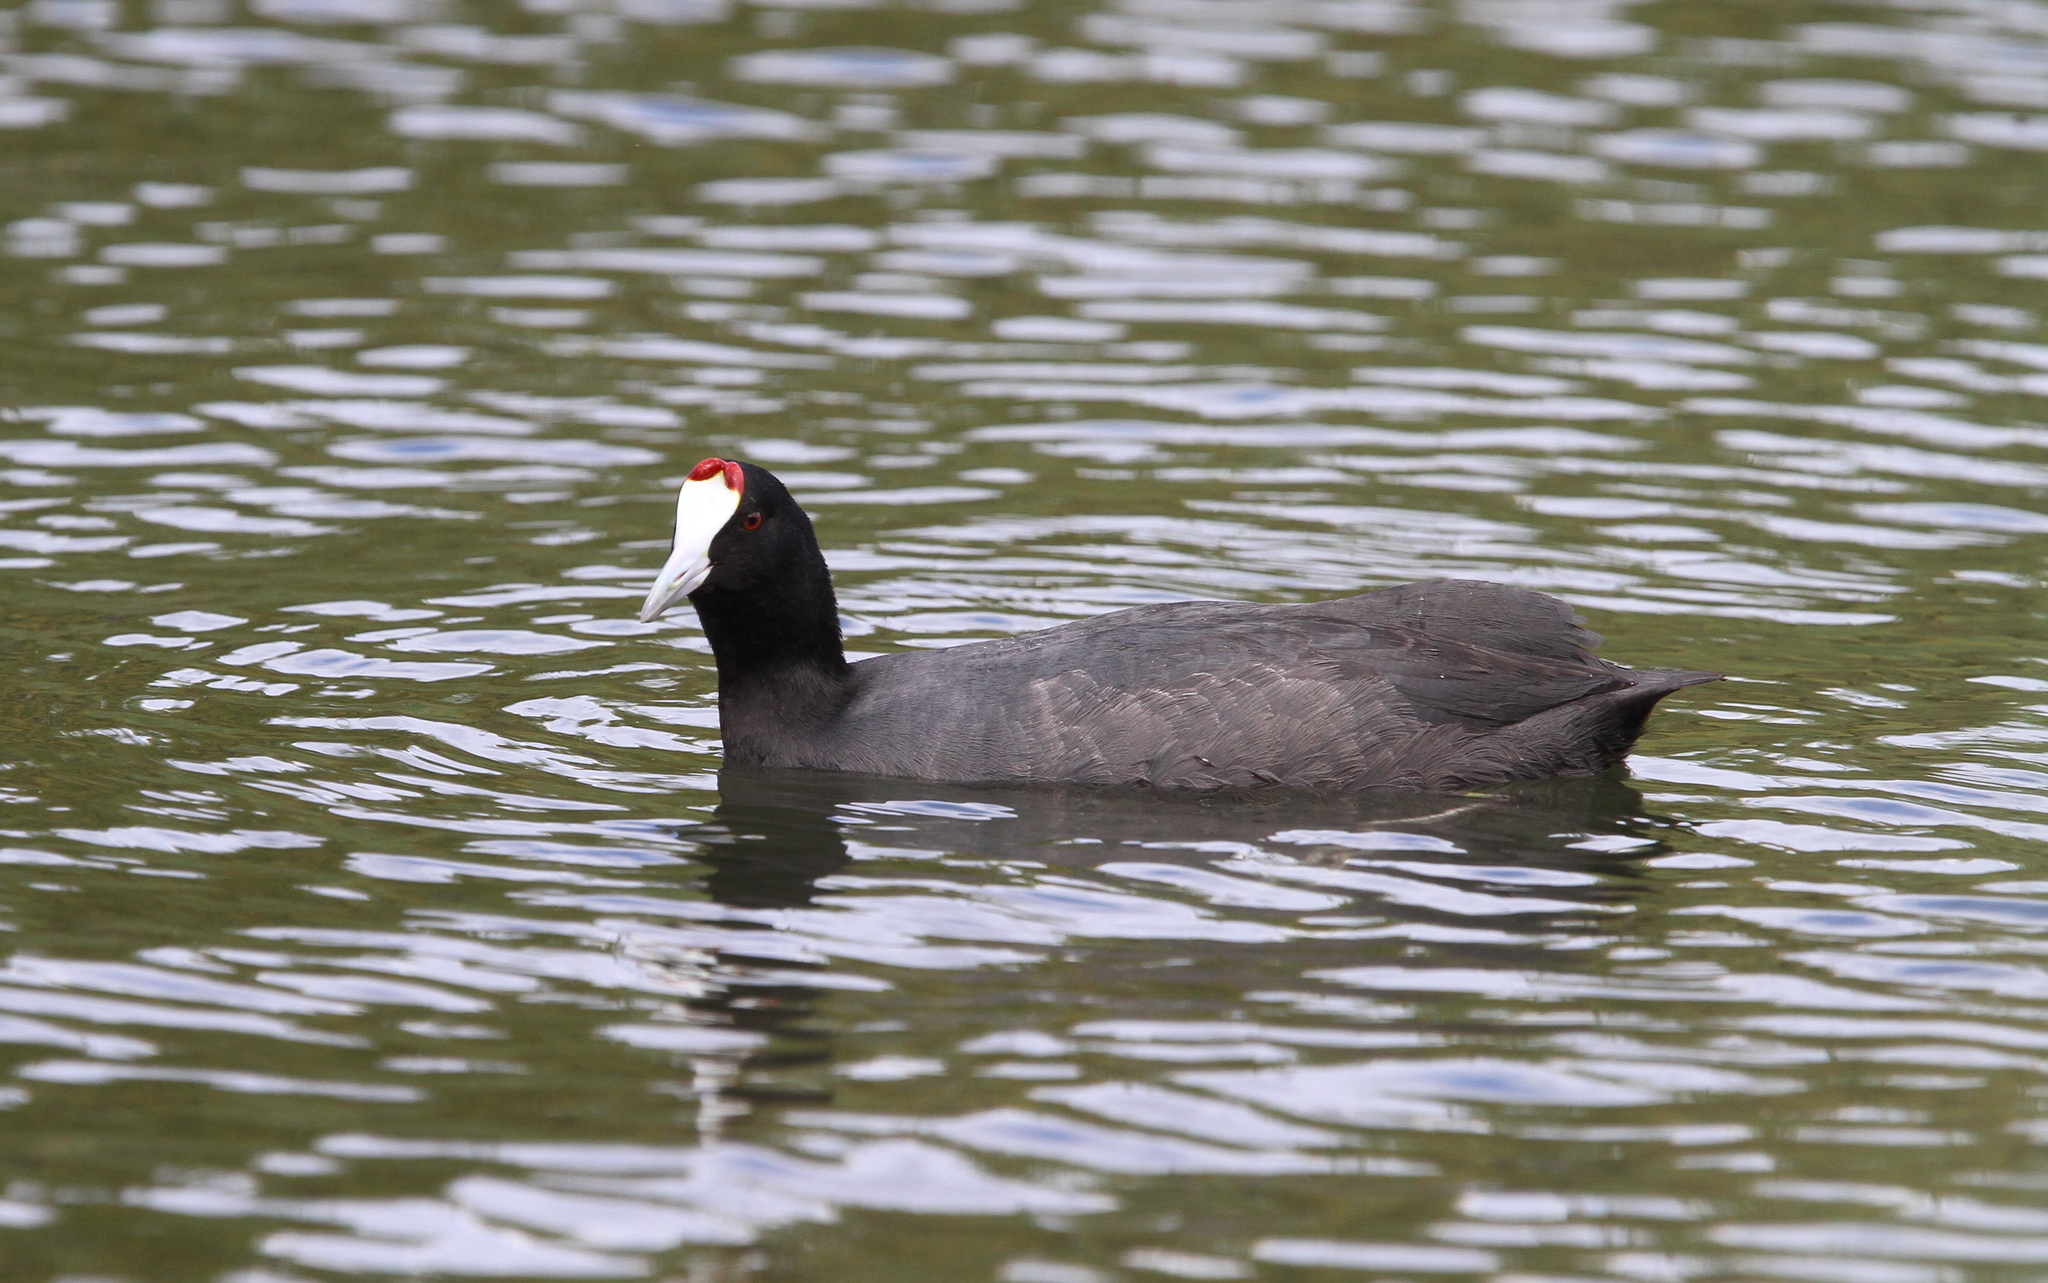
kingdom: Animalia
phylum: Chordata
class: Aves
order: Gruiformes
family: Rallidae
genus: Fulica
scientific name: Fulica cristata
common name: Red-knobbed coot
